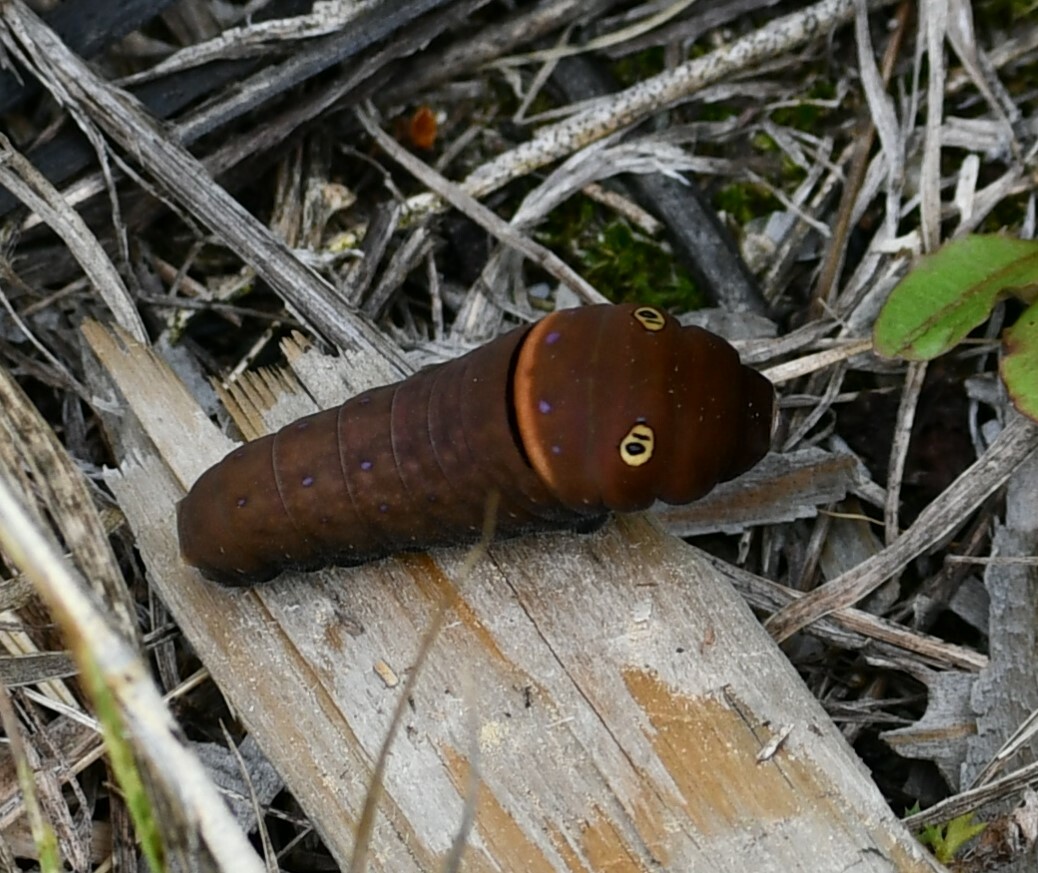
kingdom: Animalia
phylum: Arthropoda
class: Insecta
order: Lepidoptera
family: Papilionidae
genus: Papilio
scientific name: Papilio canadensis
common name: Canadian tiger swallowtail
